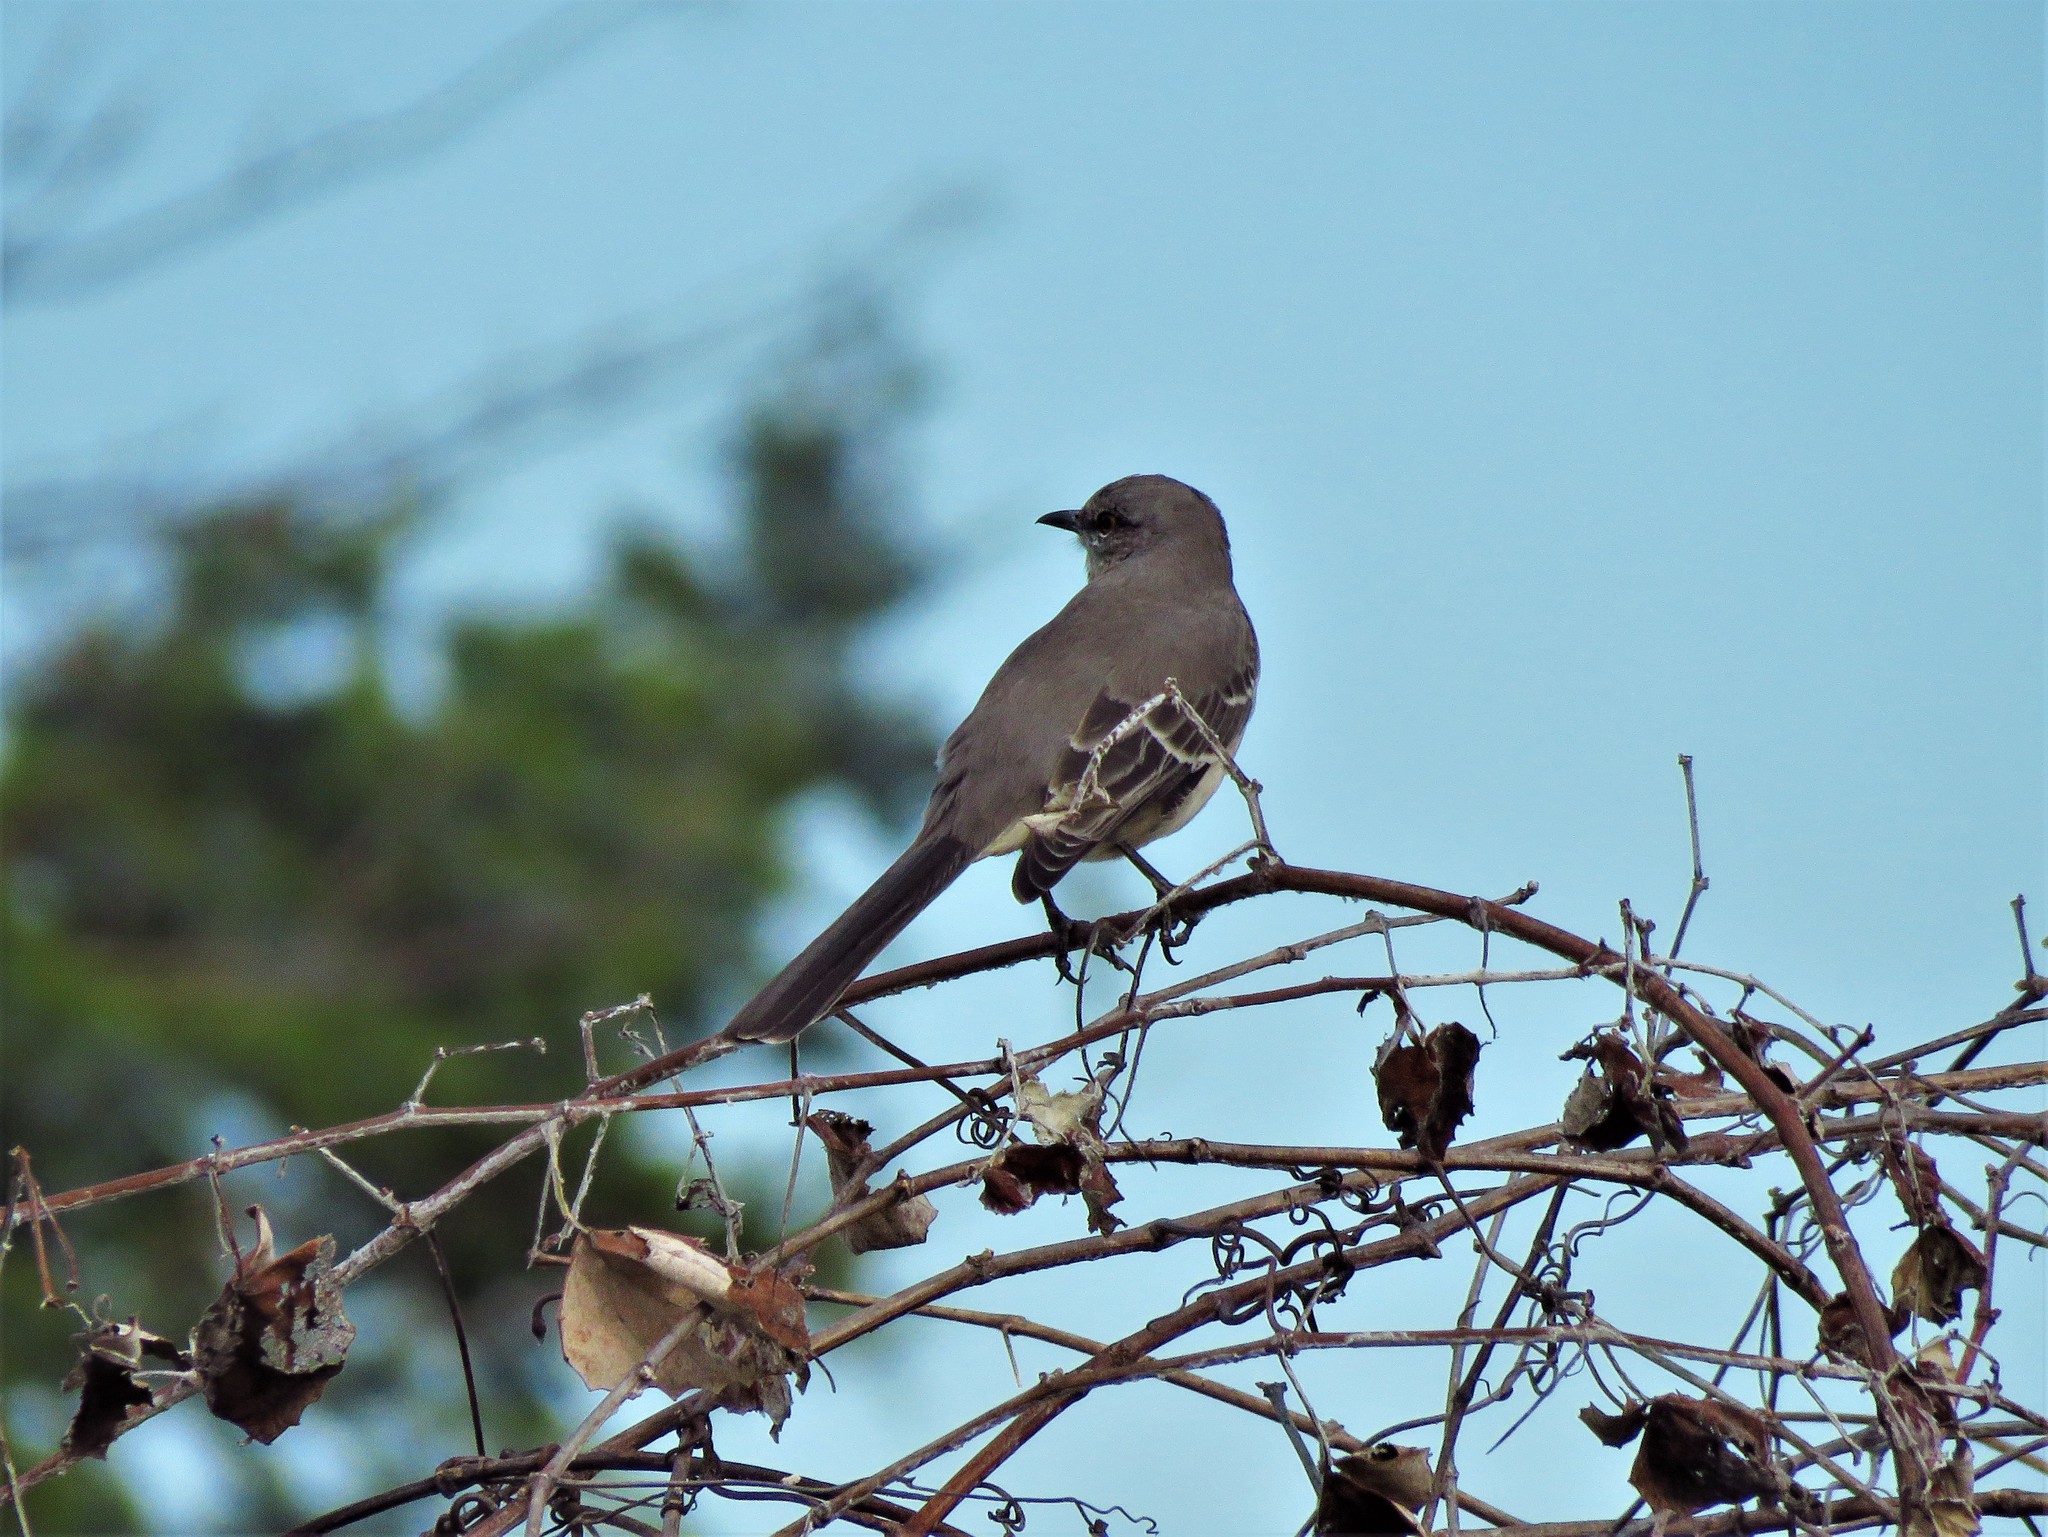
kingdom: Animalia
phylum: Chordata
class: Aves
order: Passeriformes
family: Mimidae
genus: Mimus
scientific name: Mimus polyglottos
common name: Northern mockingbird
